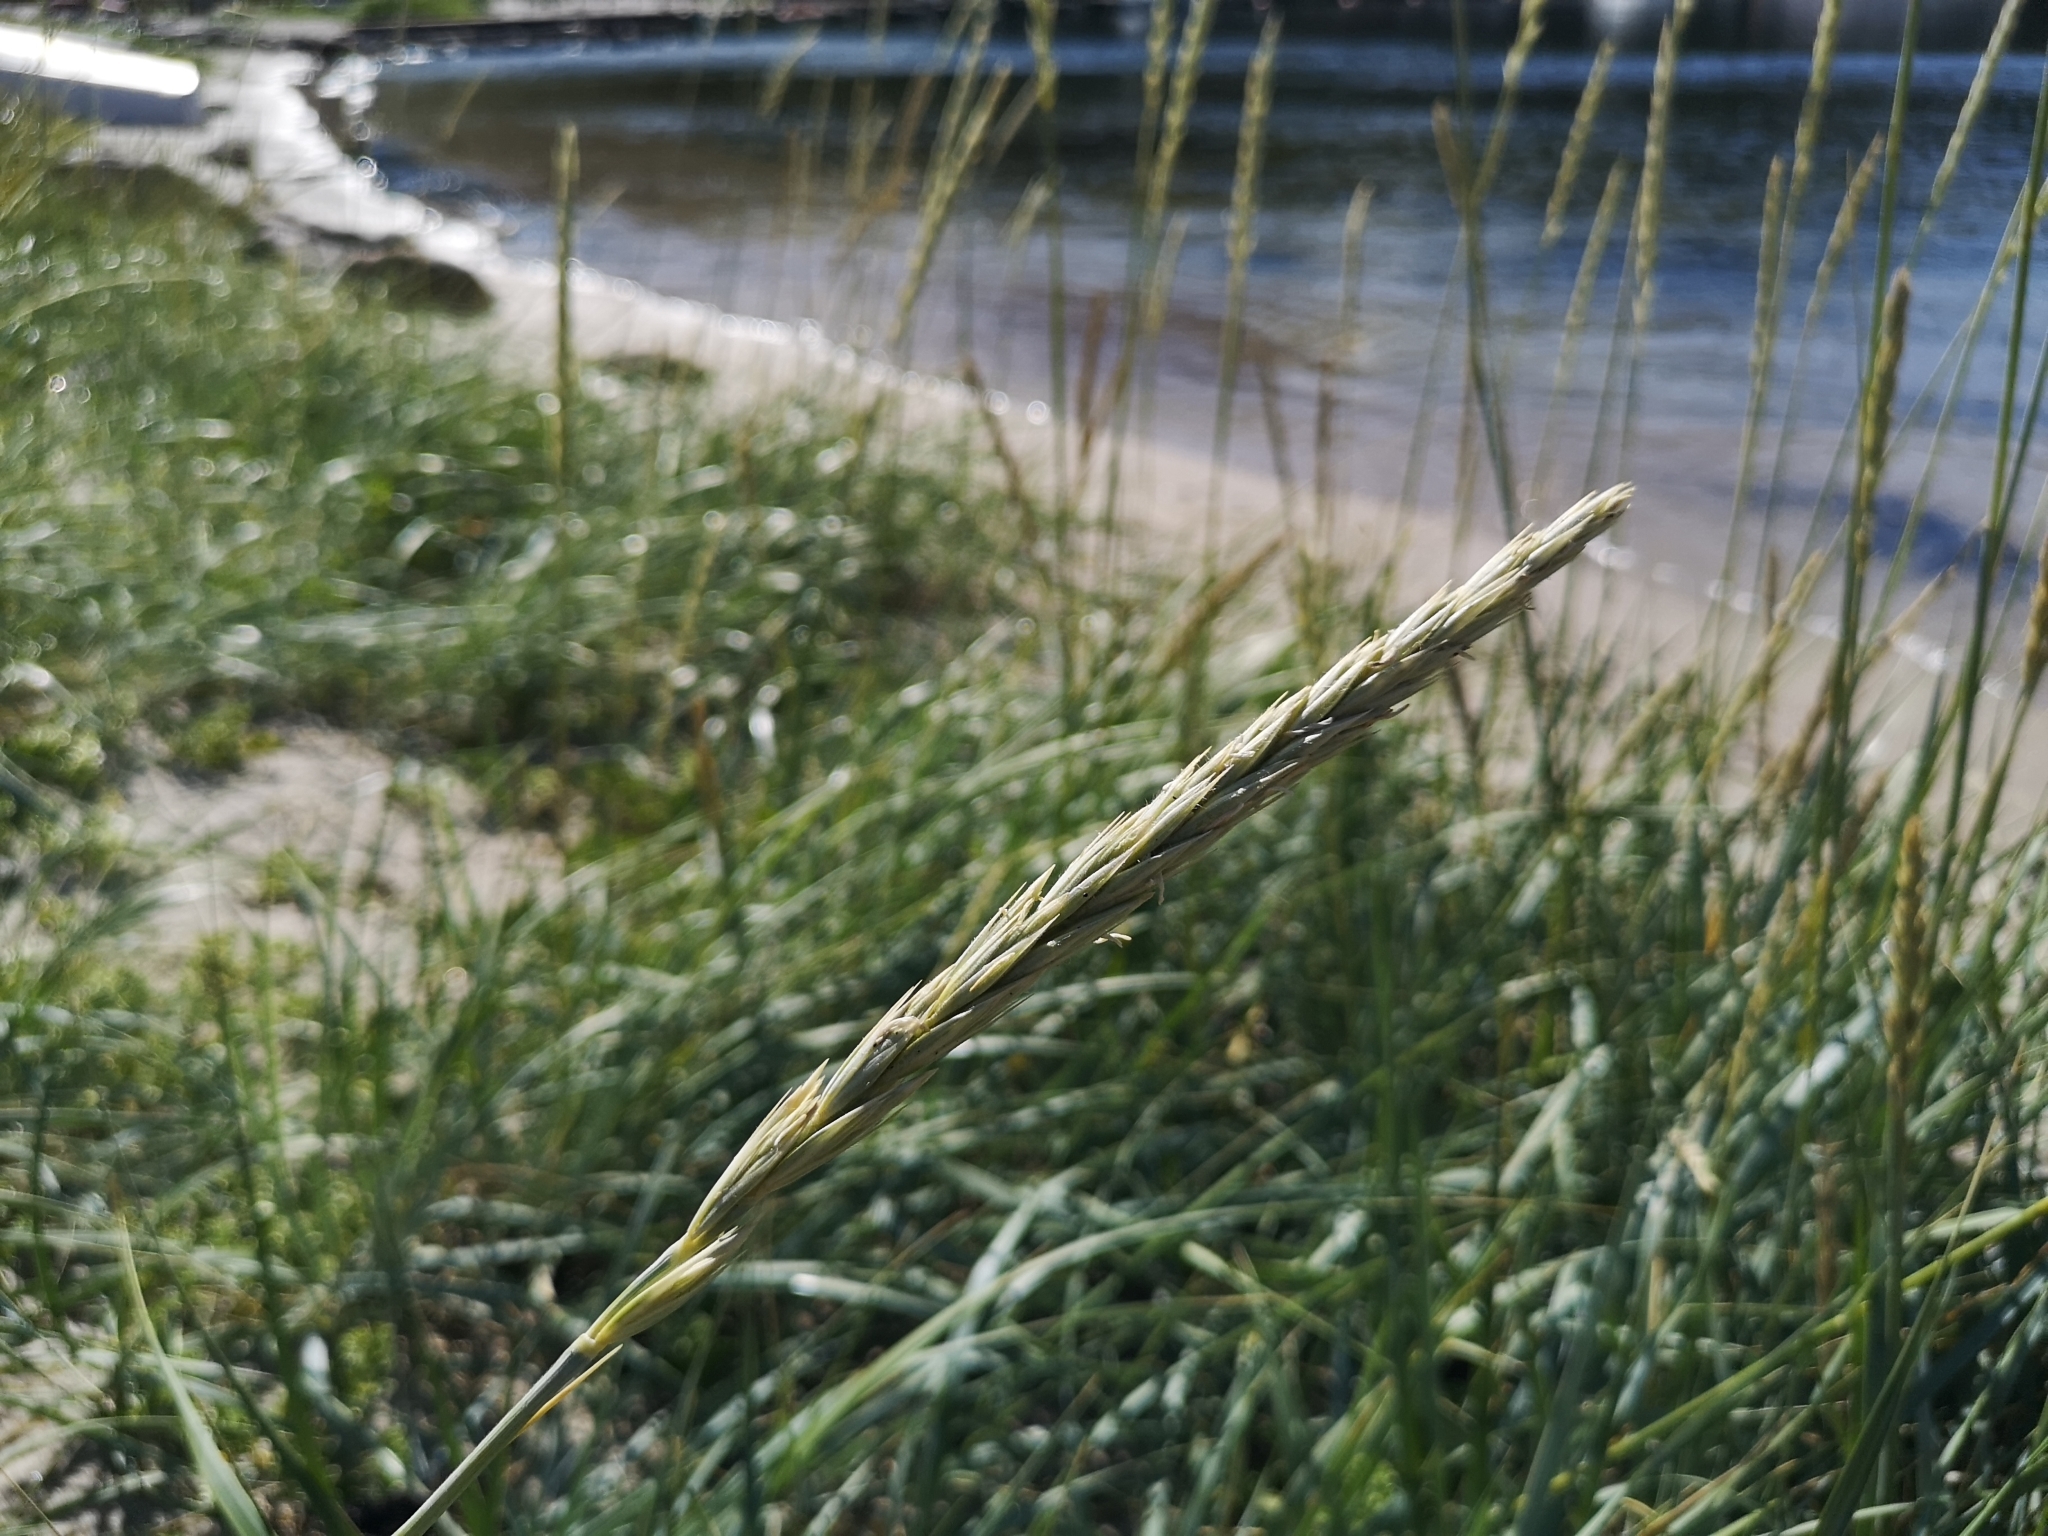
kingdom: Plantae
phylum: Tracheophyta
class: Liliopsida
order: Poales
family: Poaceae
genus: Leymus
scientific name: Leymus arenarius
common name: Lyme-grass
